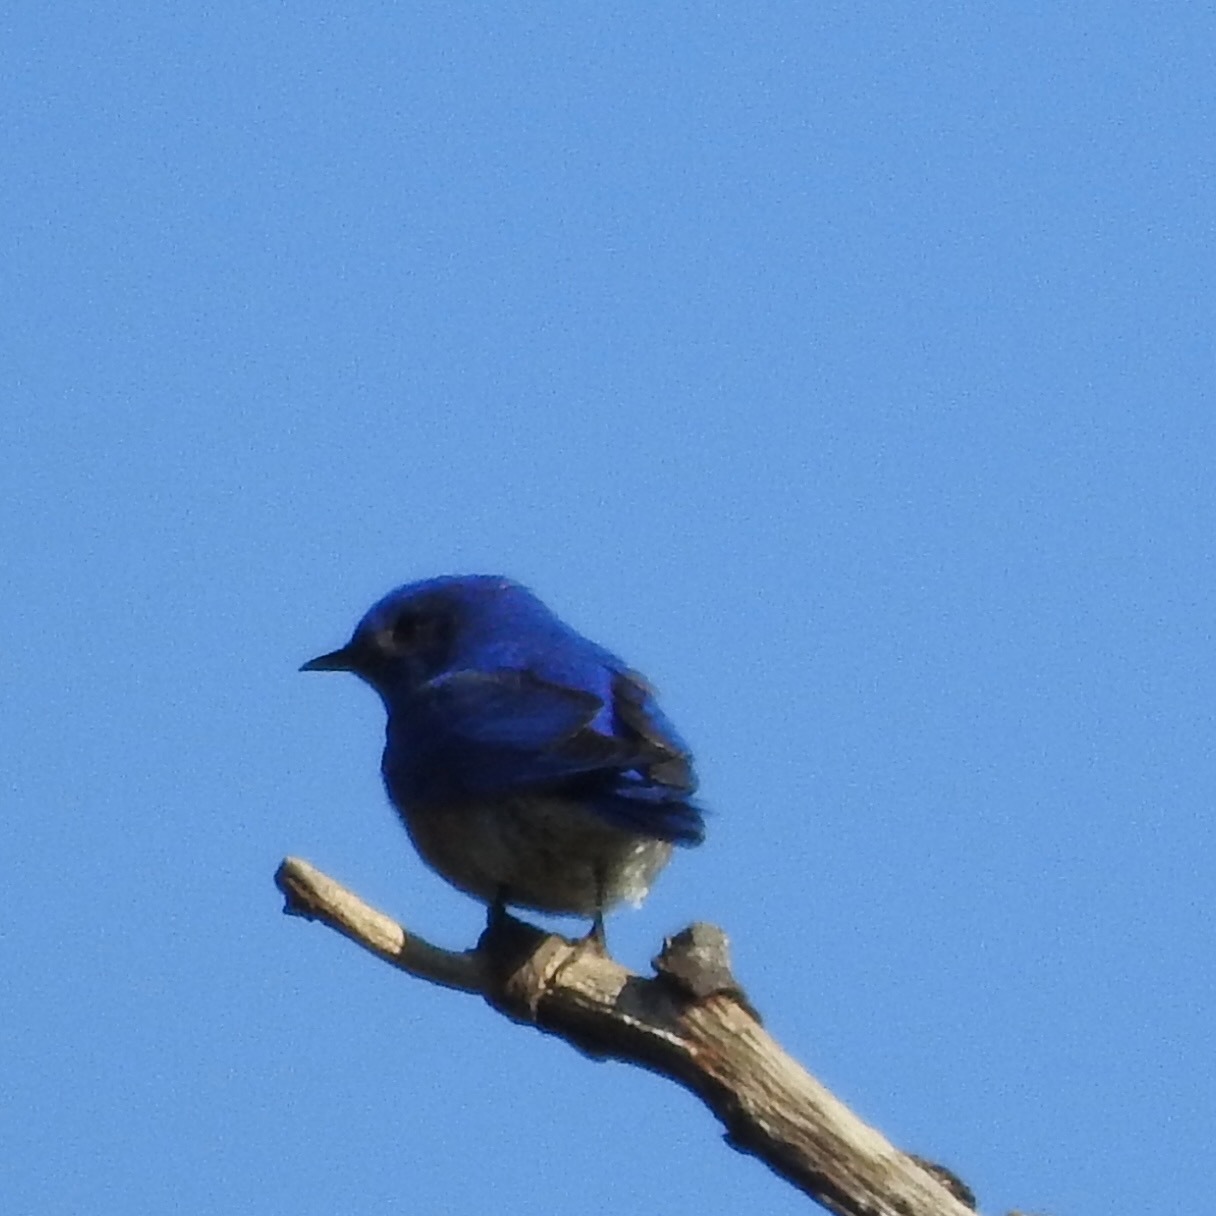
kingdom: Animalia
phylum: Chordata
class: Aves
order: Passeriformes
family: Turdidae
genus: Sialia
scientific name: Sialia mexicana
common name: Western bluebird
